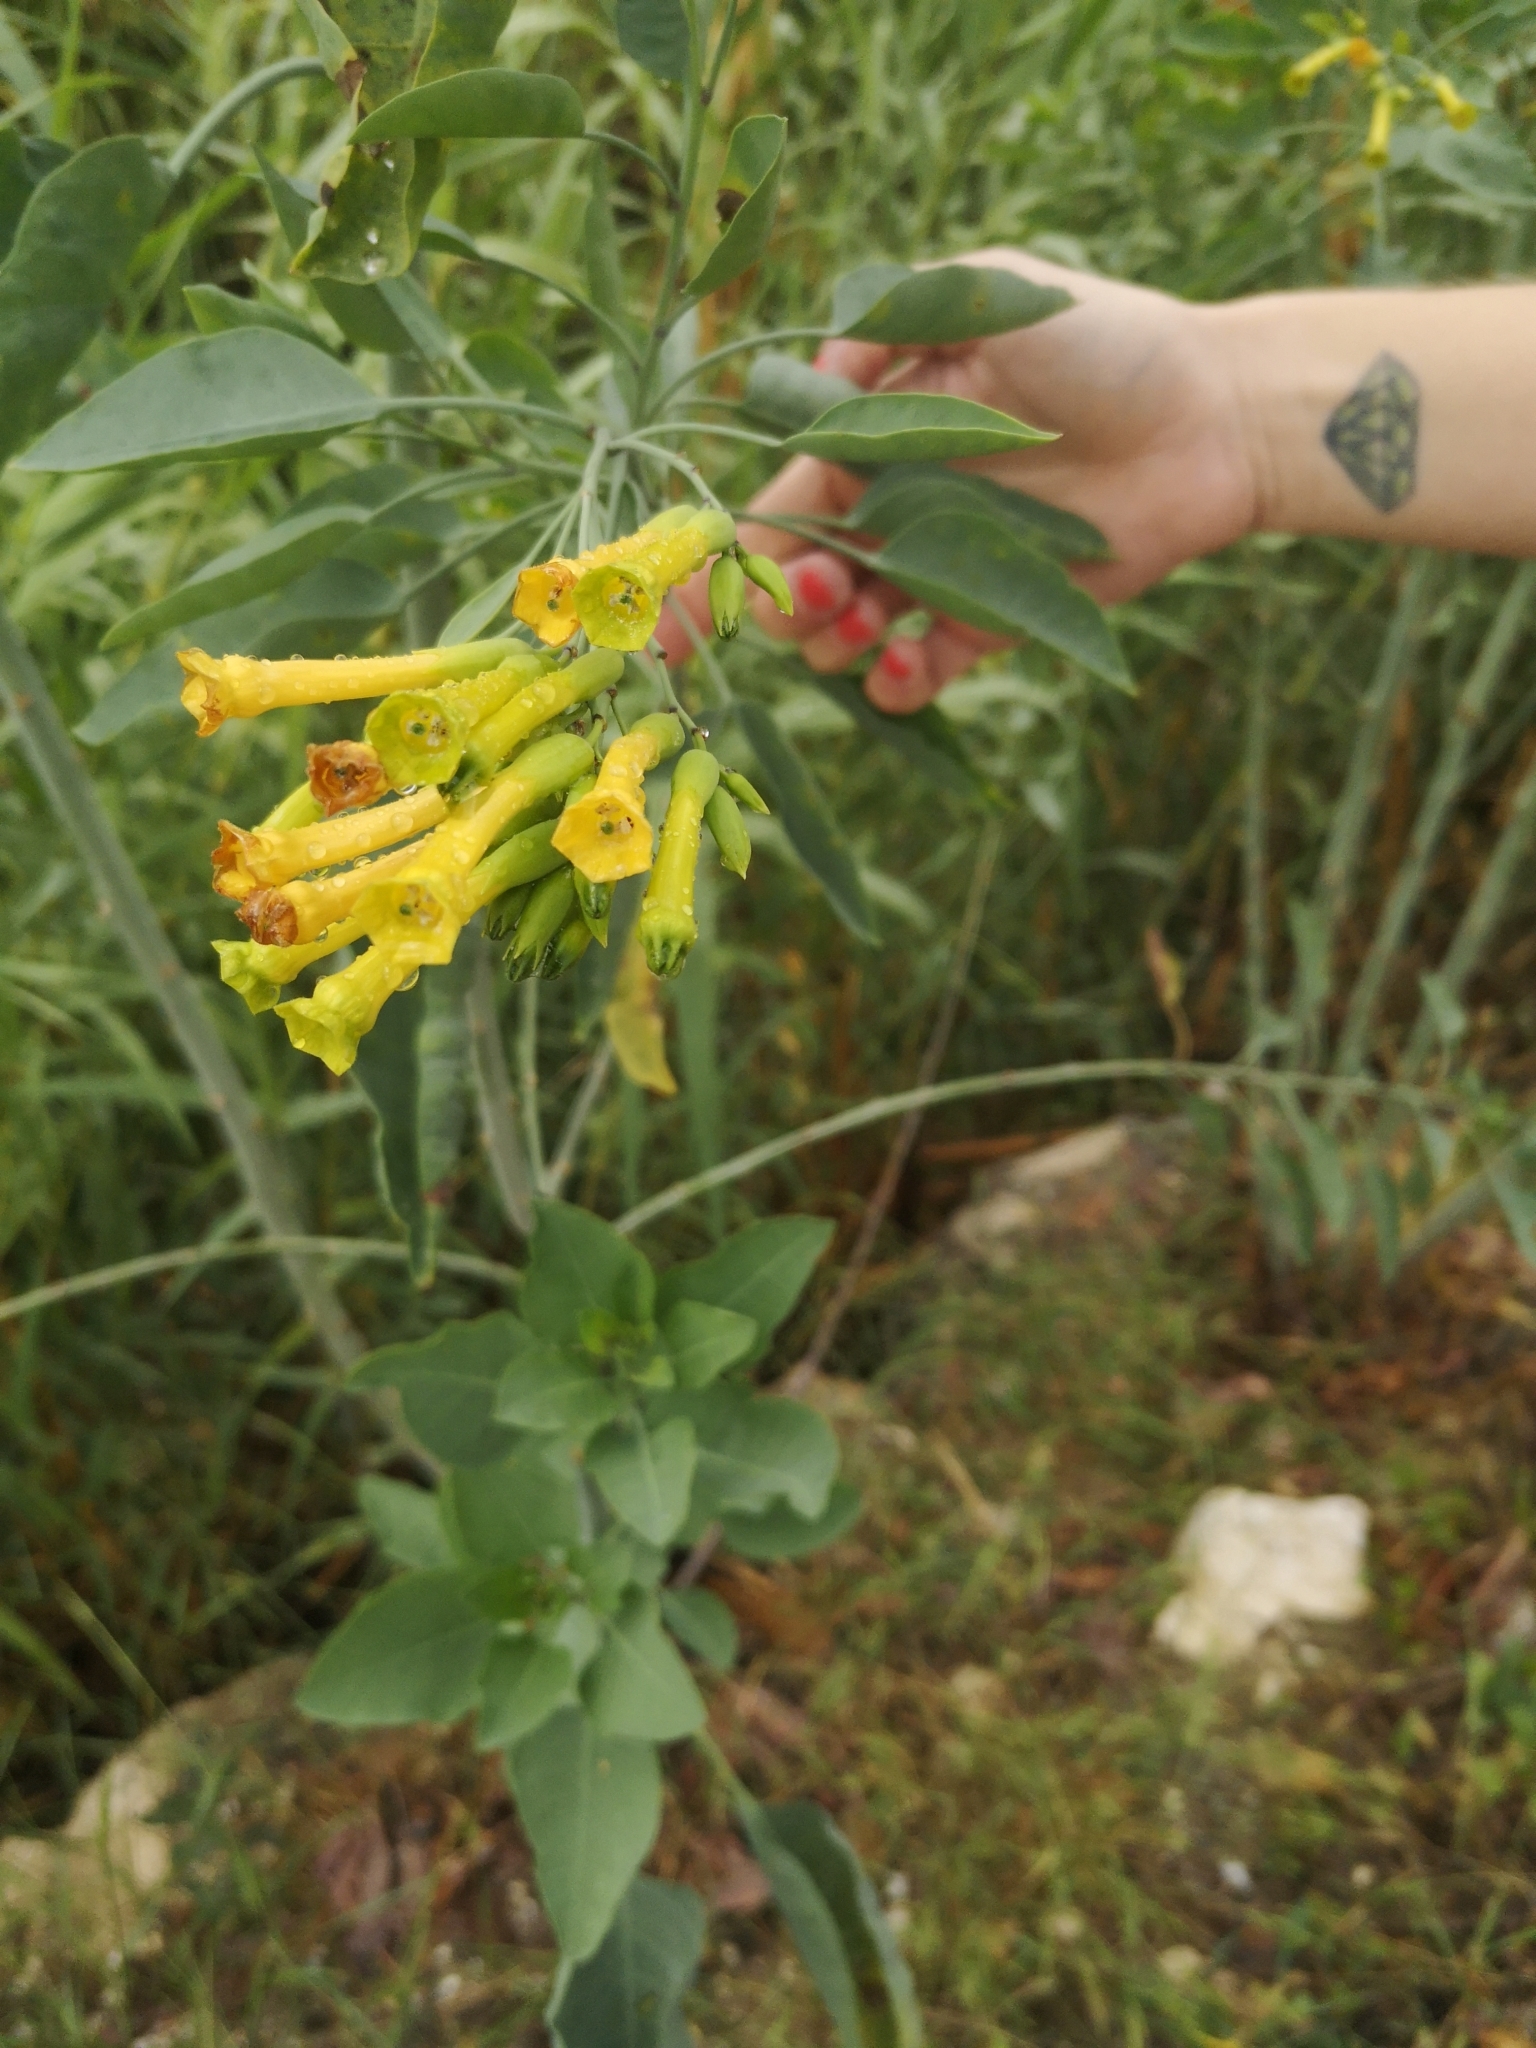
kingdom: Plantae
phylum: Tracheophyta
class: Magnoliopsida
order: Solanales
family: Solanaceae
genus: Nicotiana
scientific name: Nicotiana glauca
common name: Tree tobacco
